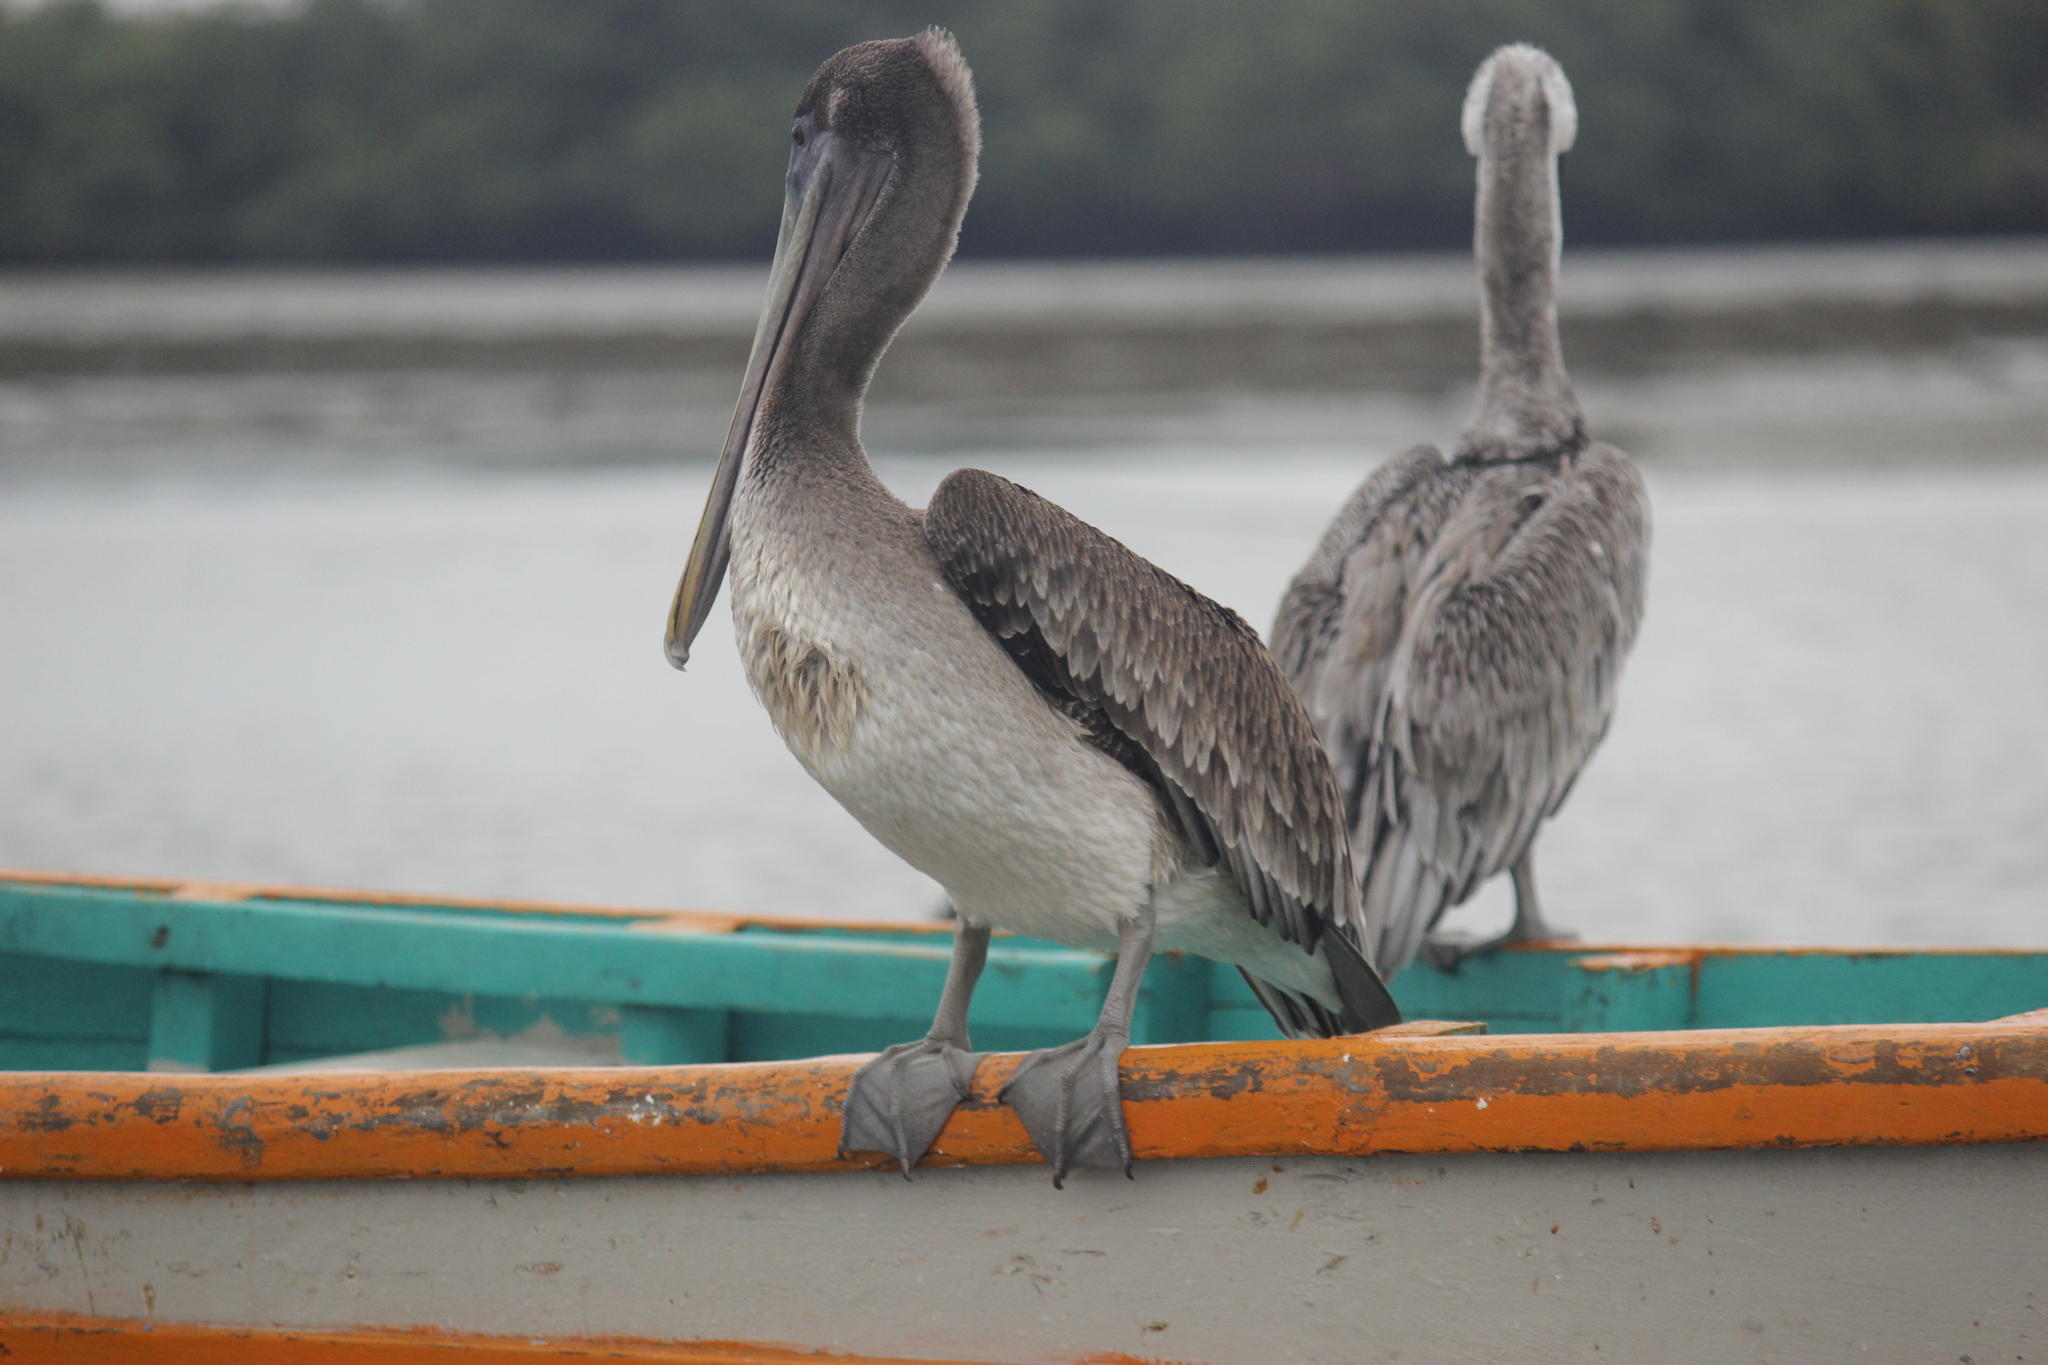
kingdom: Animalia
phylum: Chordata
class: Aves
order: Pelecaniformes
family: Pelecanidae
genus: Pelecanus
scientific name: Pelecanus thagus
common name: Peruvian pelican
